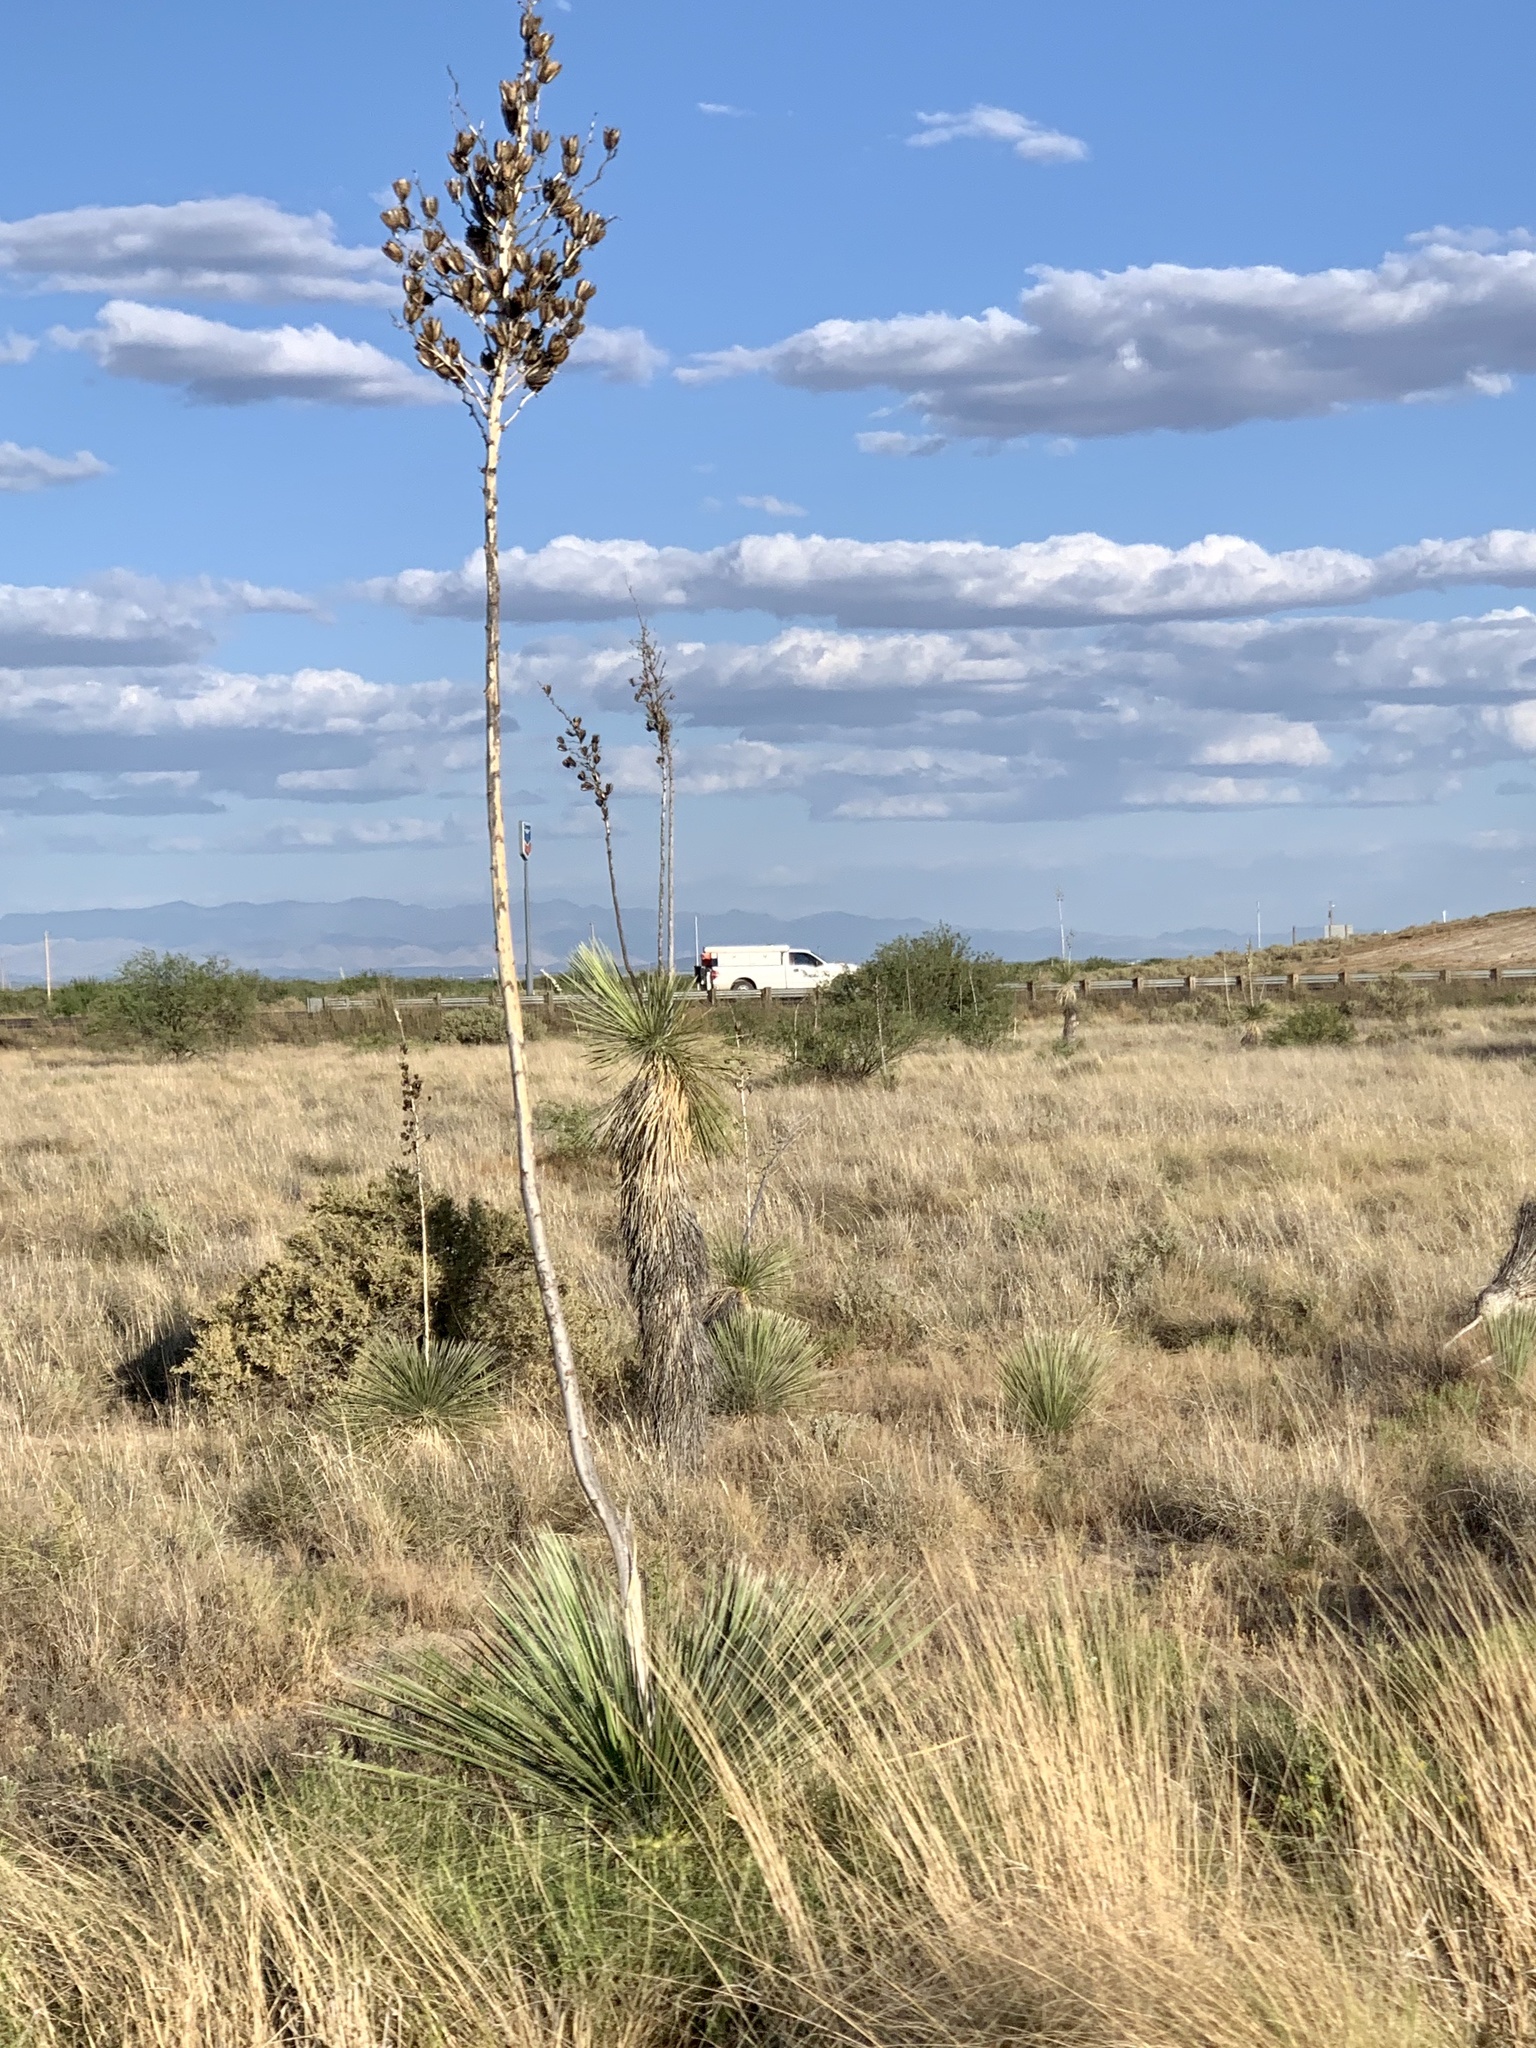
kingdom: Plantae
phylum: Tracheophyta
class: Liliopsida
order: Asparagales
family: Asparagaceae
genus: Yucca
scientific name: Yucca elata
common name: Palmella
